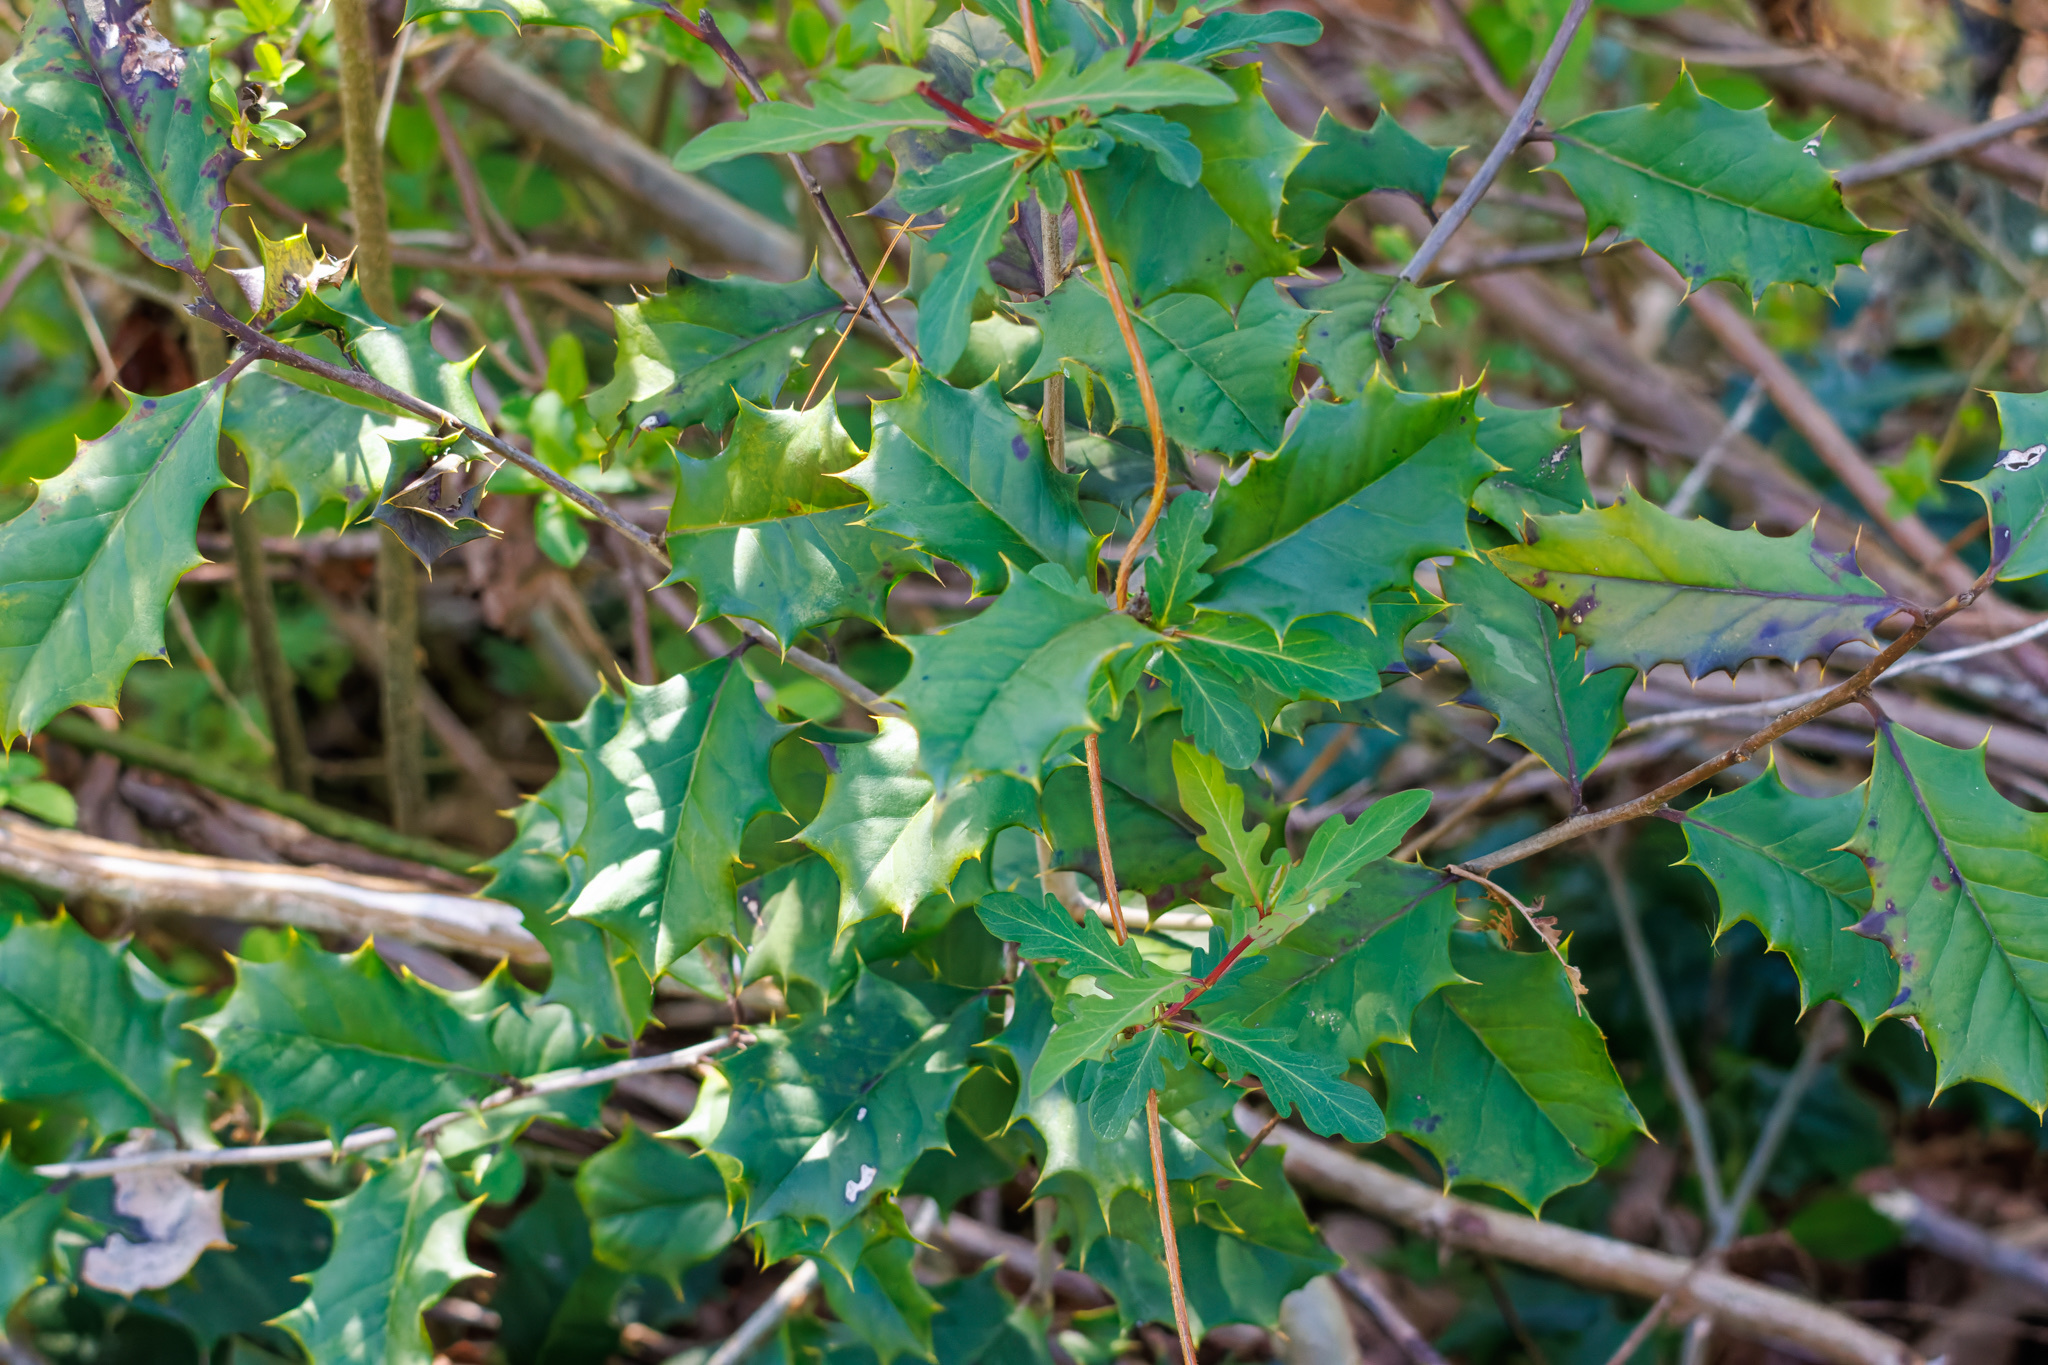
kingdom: Plantae
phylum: Tracheophyta
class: Magnoliopsida
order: Aquifoliales
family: Aquifoliaceae
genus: Ilex
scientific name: Ilex opaca
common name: American holly
